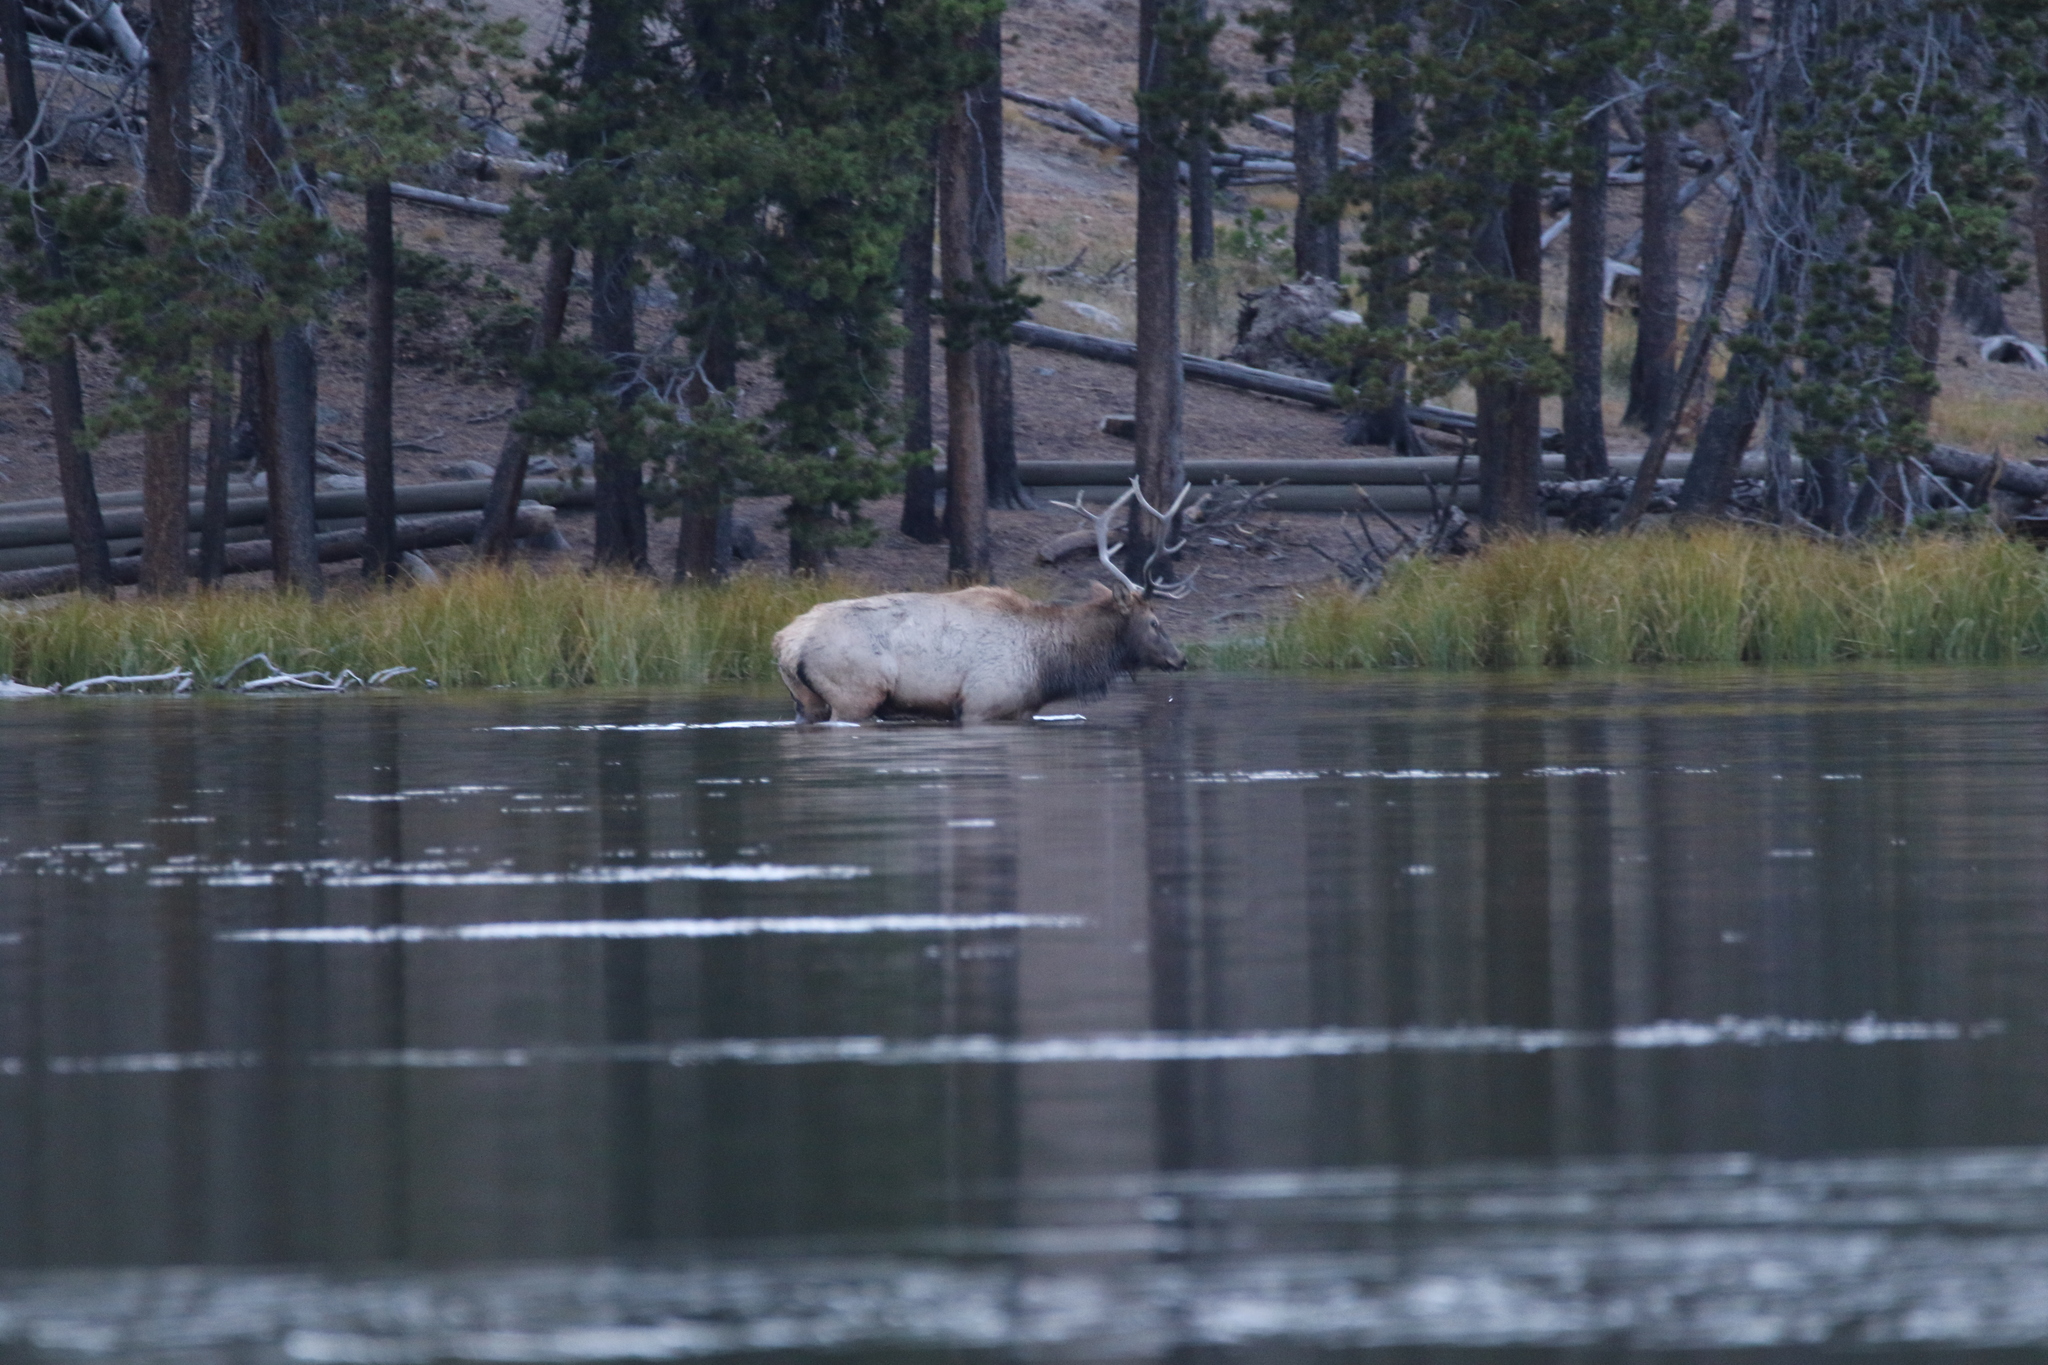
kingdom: Animalia
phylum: Chordata
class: Mammalia
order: Artiodactyla
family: Cervidae
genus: Cervus
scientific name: Cervus elaphus
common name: Red deer
